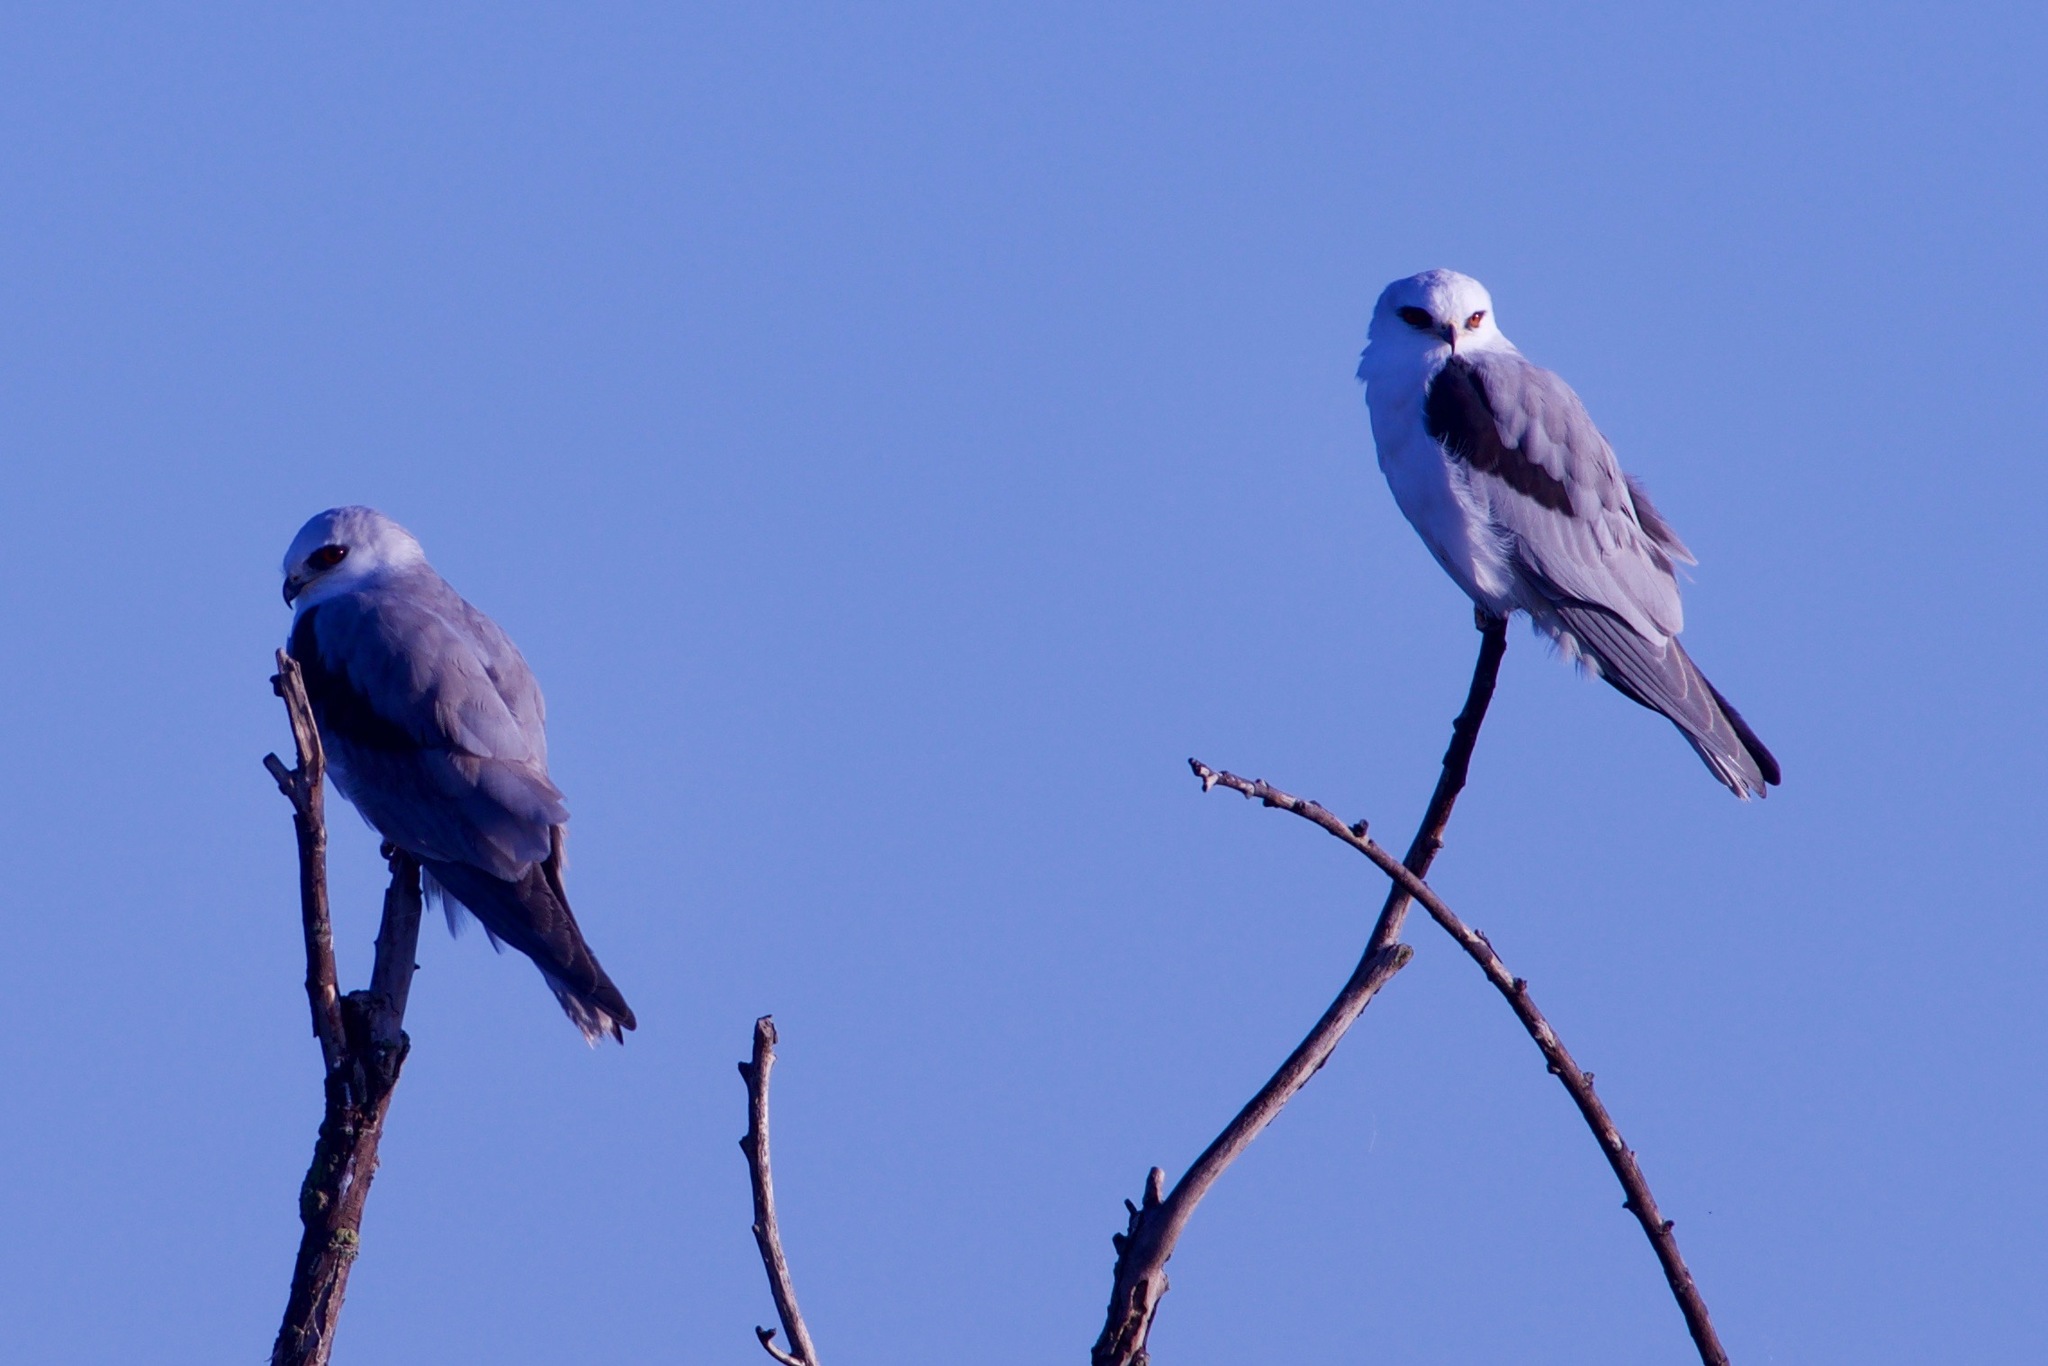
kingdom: Animalia
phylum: Chordata
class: Aves
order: Accipitriformes
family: Accipitridae
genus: Elanus
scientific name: Elanus leucurus
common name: White-tailed kite
